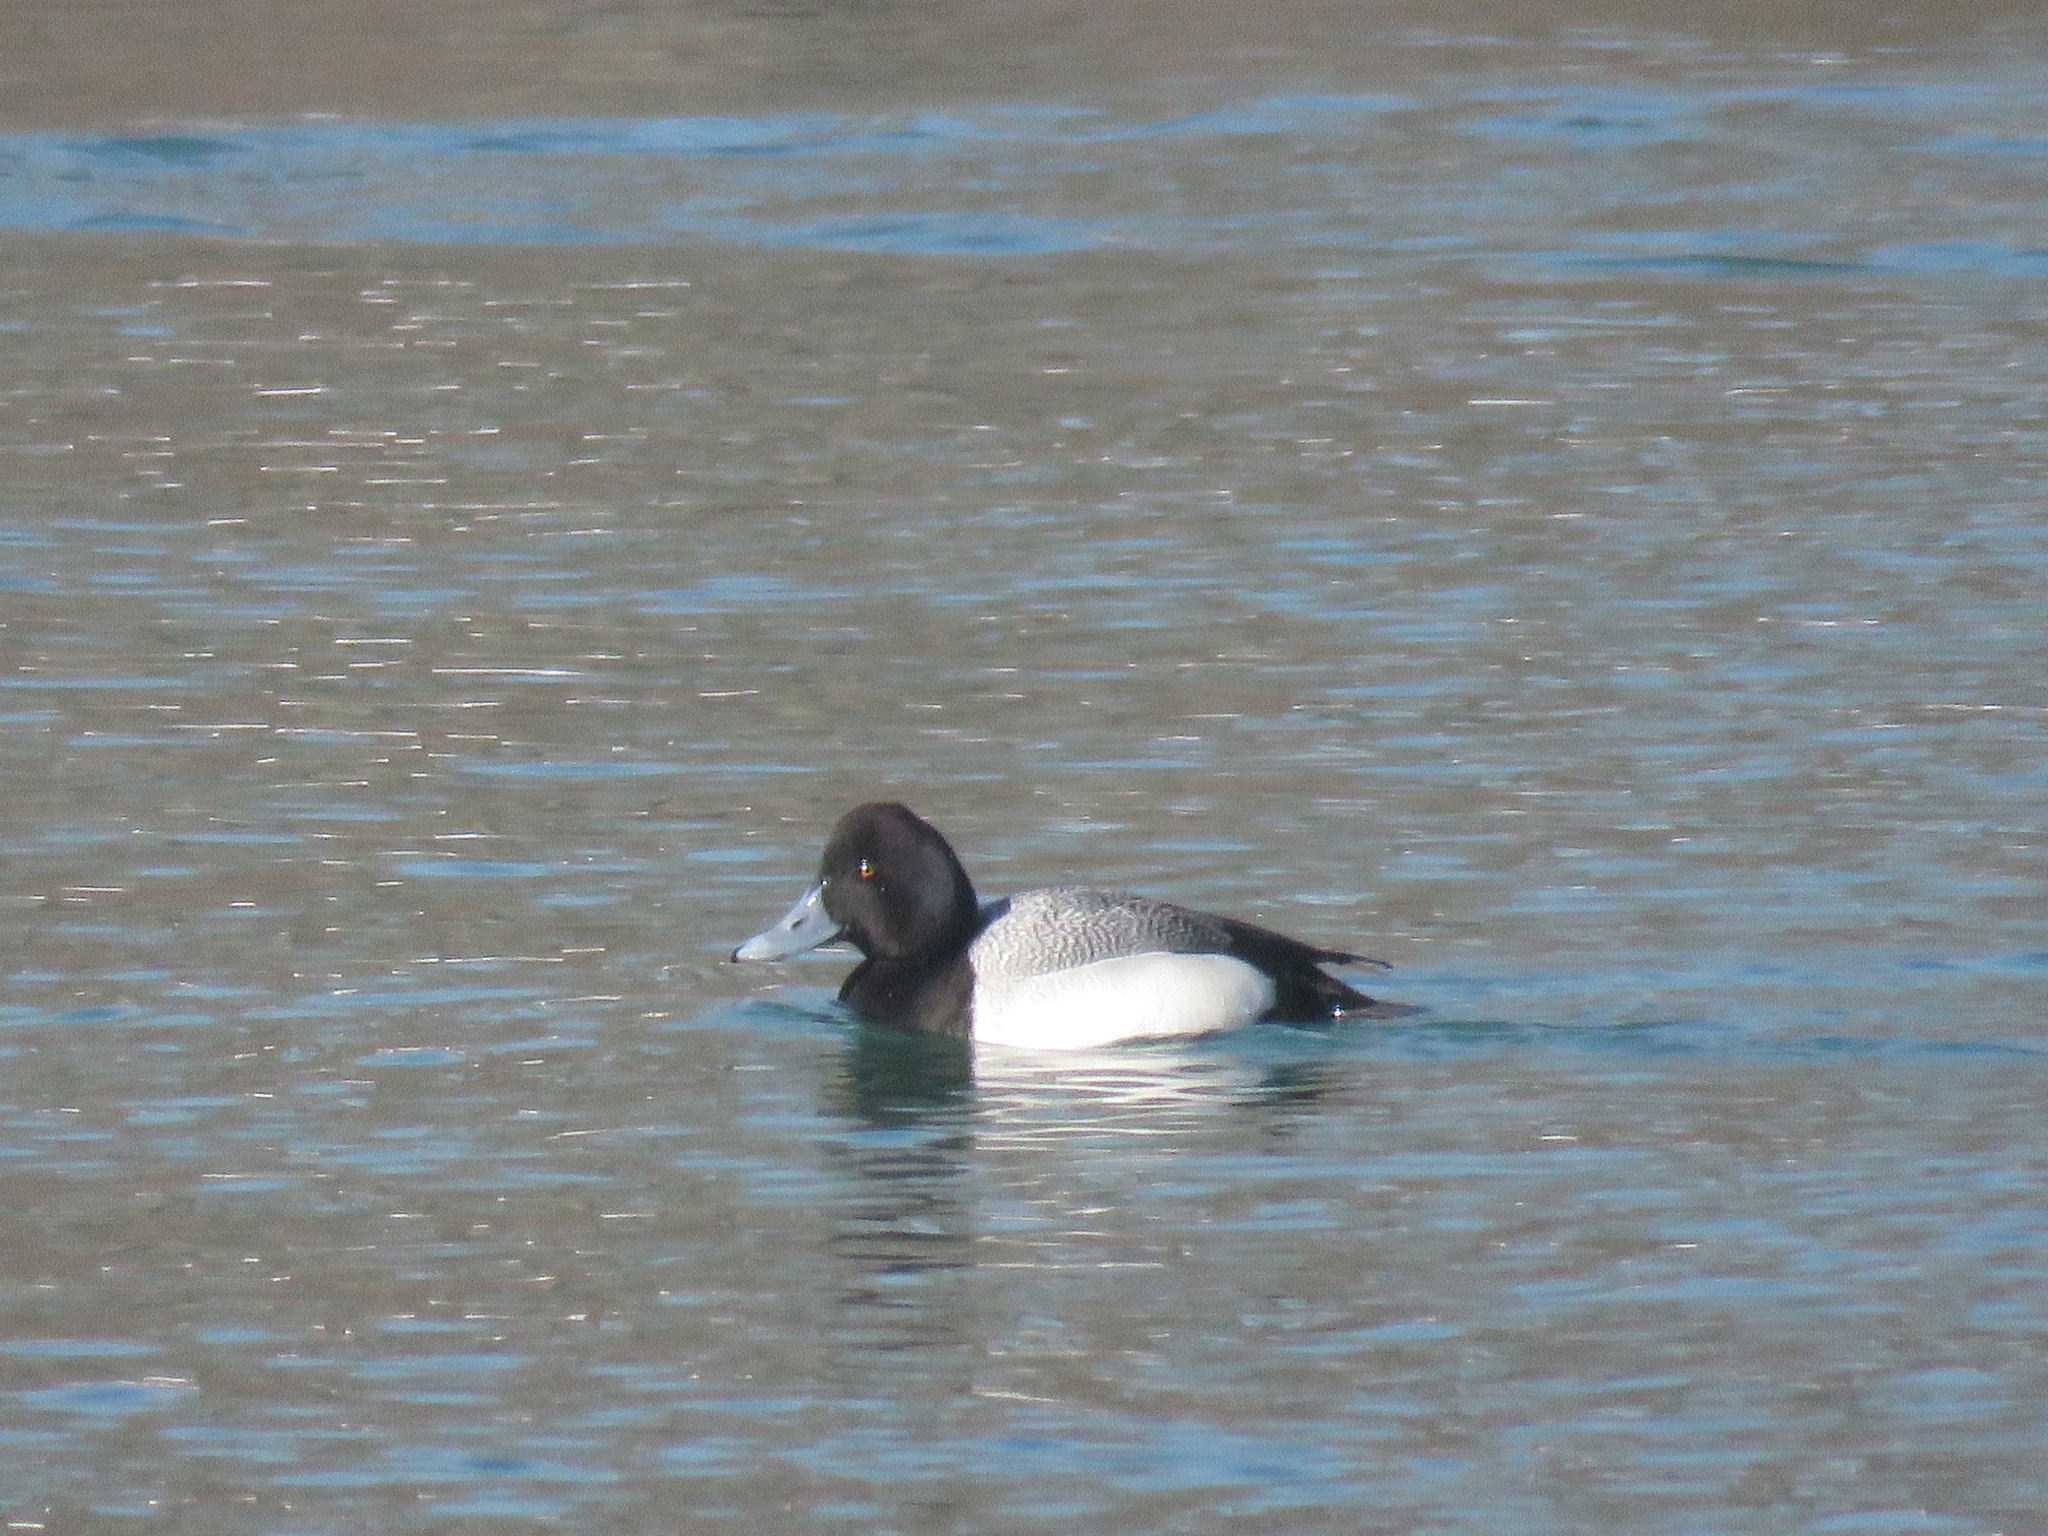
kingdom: Animalia
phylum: Chordata
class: Aves
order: Anseriformes
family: Anatidae
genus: Aythya
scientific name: Aythya affinis
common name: Lesser scaup
